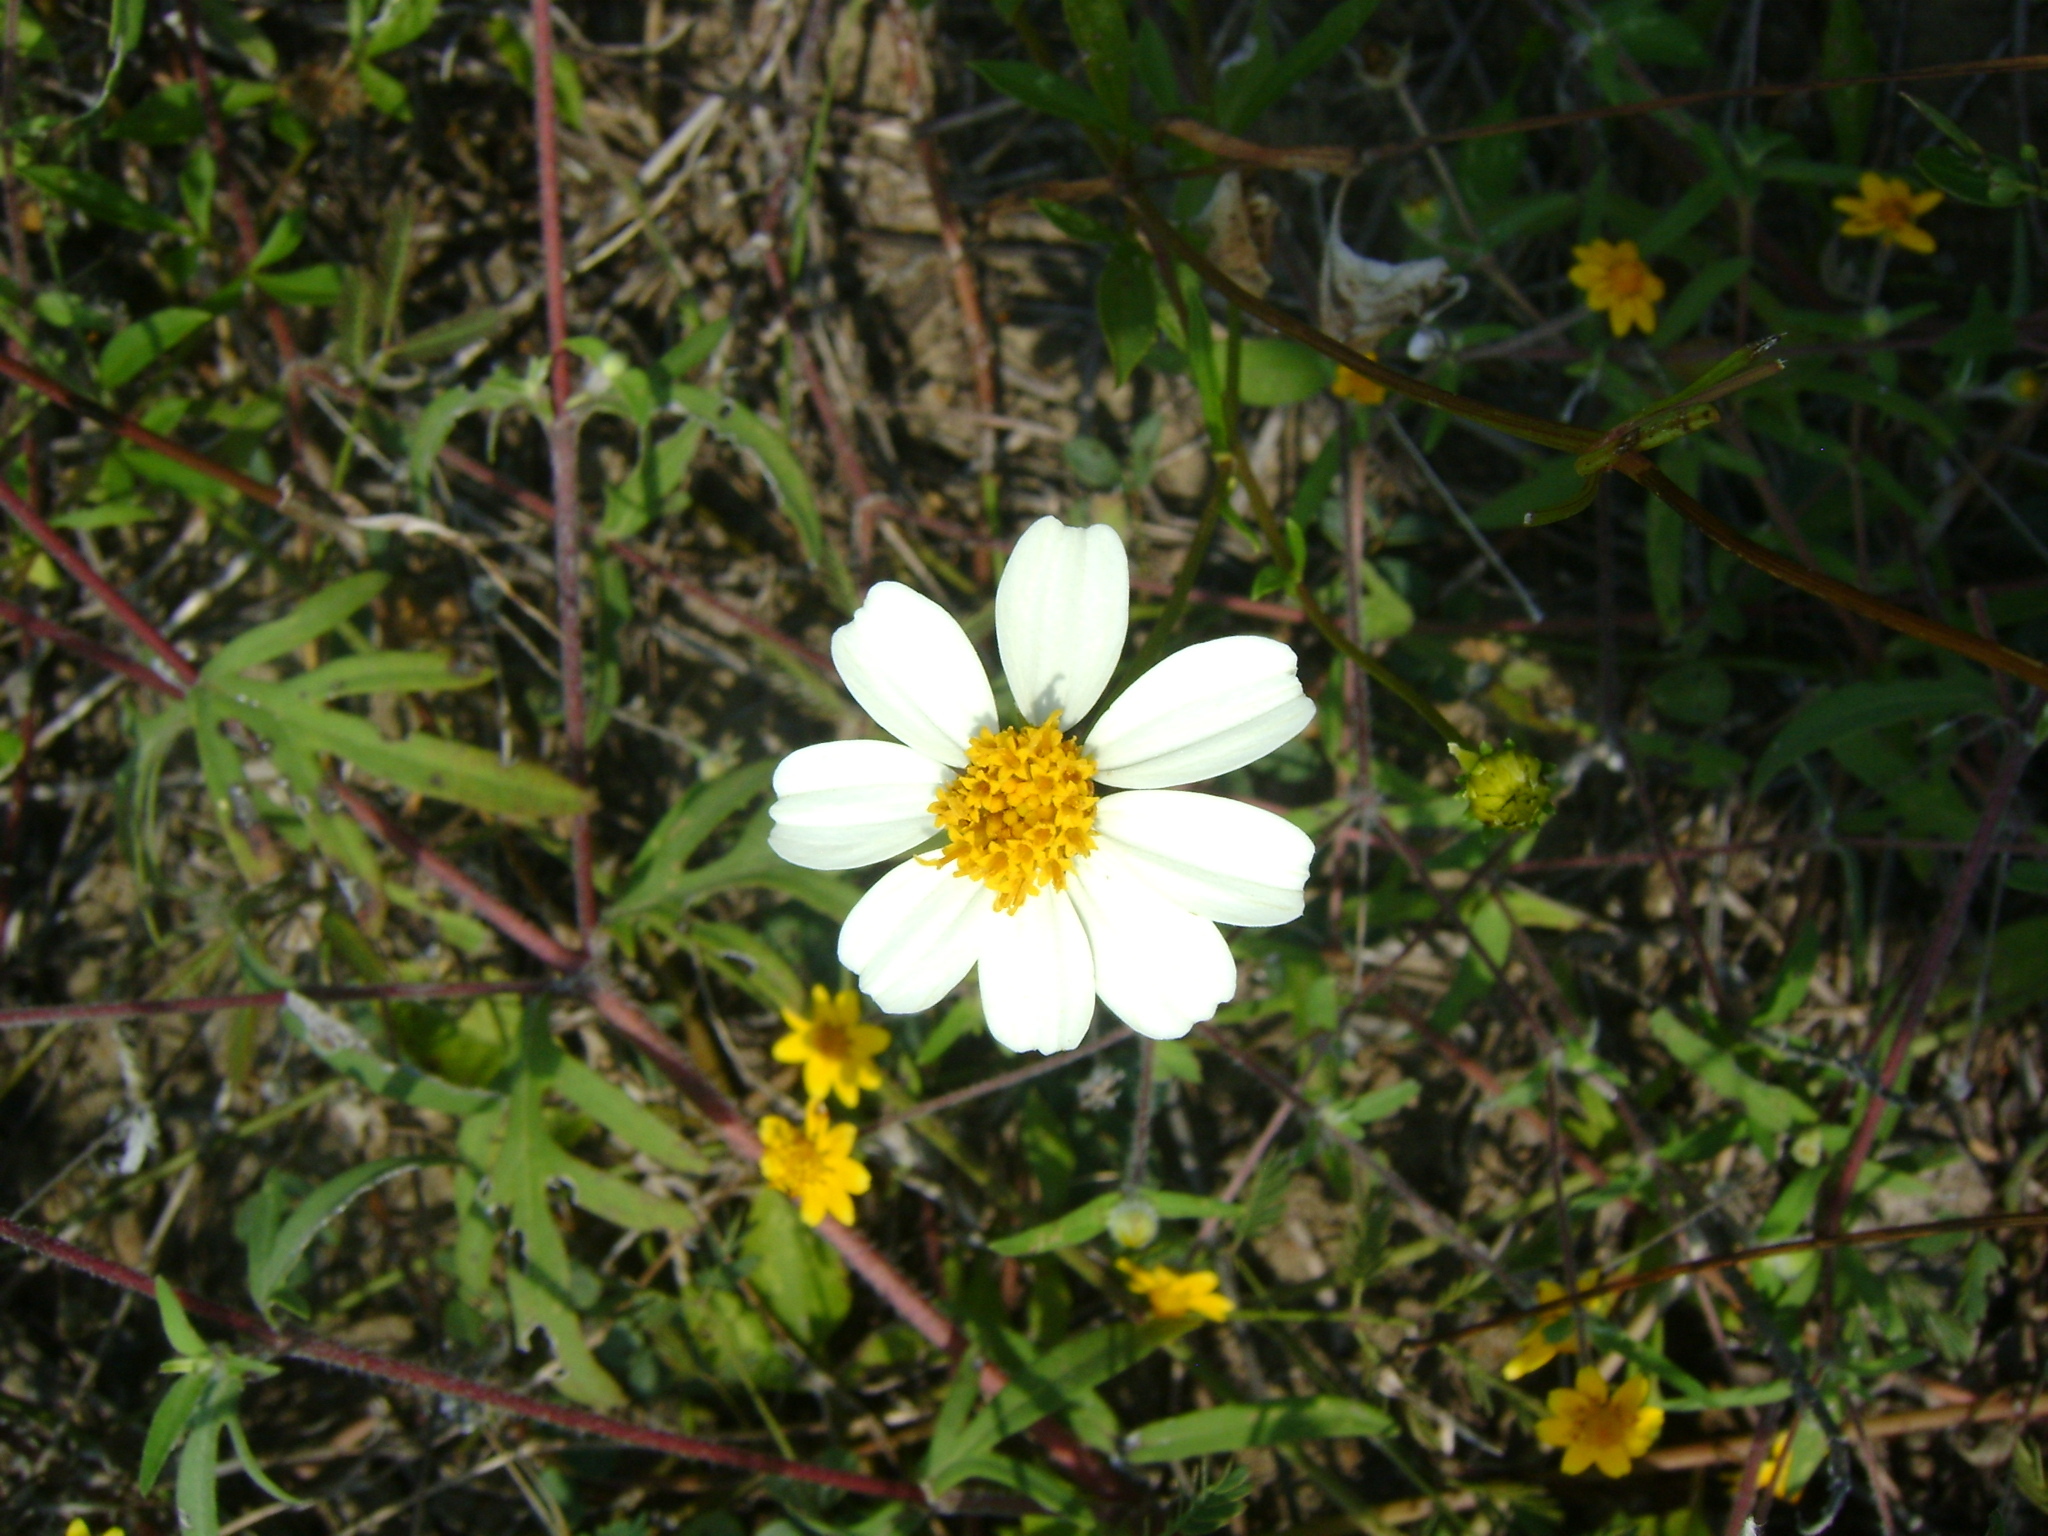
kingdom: Plantae
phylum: Tracheophyta
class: Magnoliopsida
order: Asterales
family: Asteraceae
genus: Bidens
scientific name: Bidens alba
